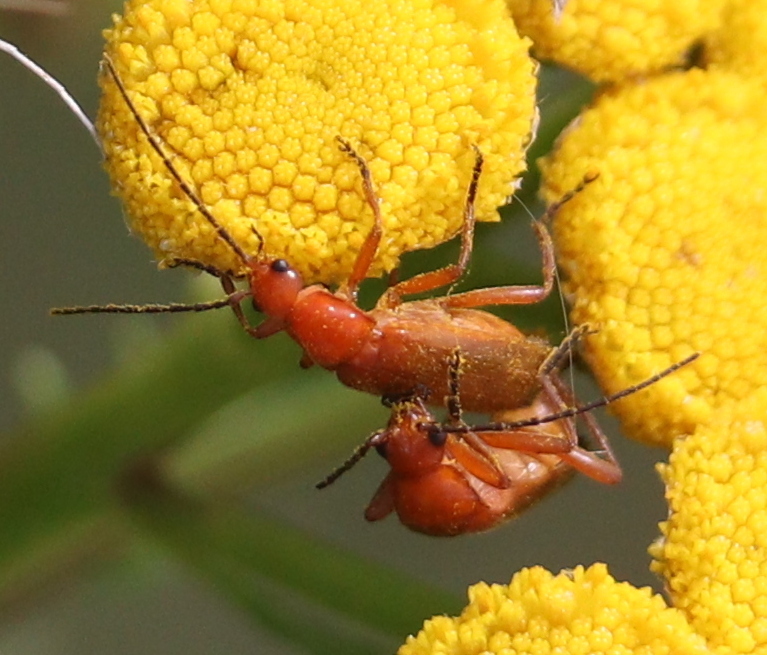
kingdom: Animalia
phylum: Arthropoda
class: Insecta
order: Coleoptera
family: Cantharidae
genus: Rhagonycha
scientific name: Rhagonycha fulva
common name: Common red soldier beetle
